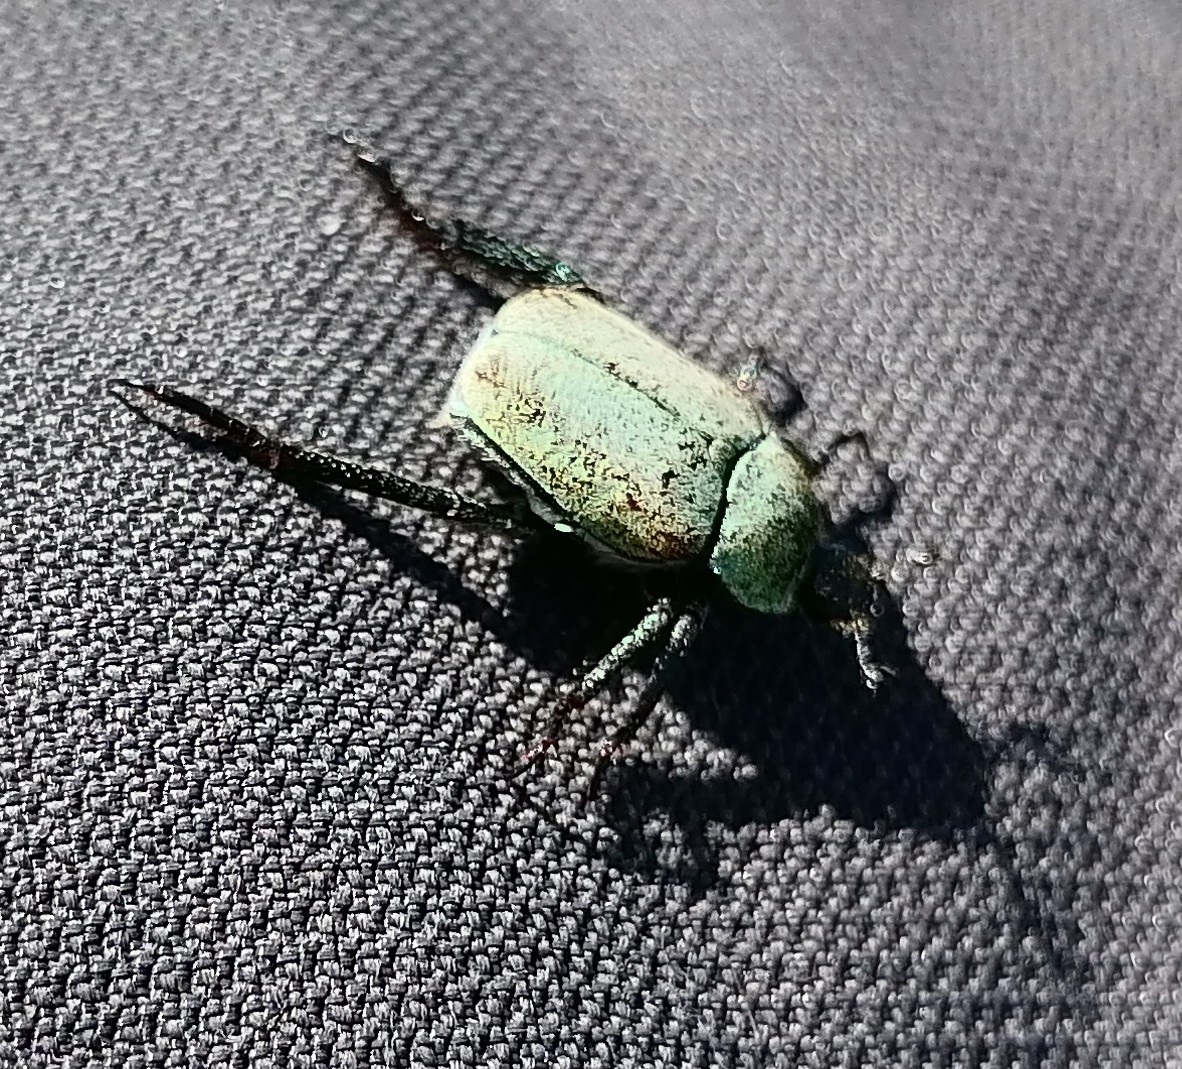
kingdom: Animalia
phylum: Arthropoda
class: Insecta
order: Coleoptera
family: Scarabaeidae
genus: Hoplia
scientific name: Hoplia argentea
